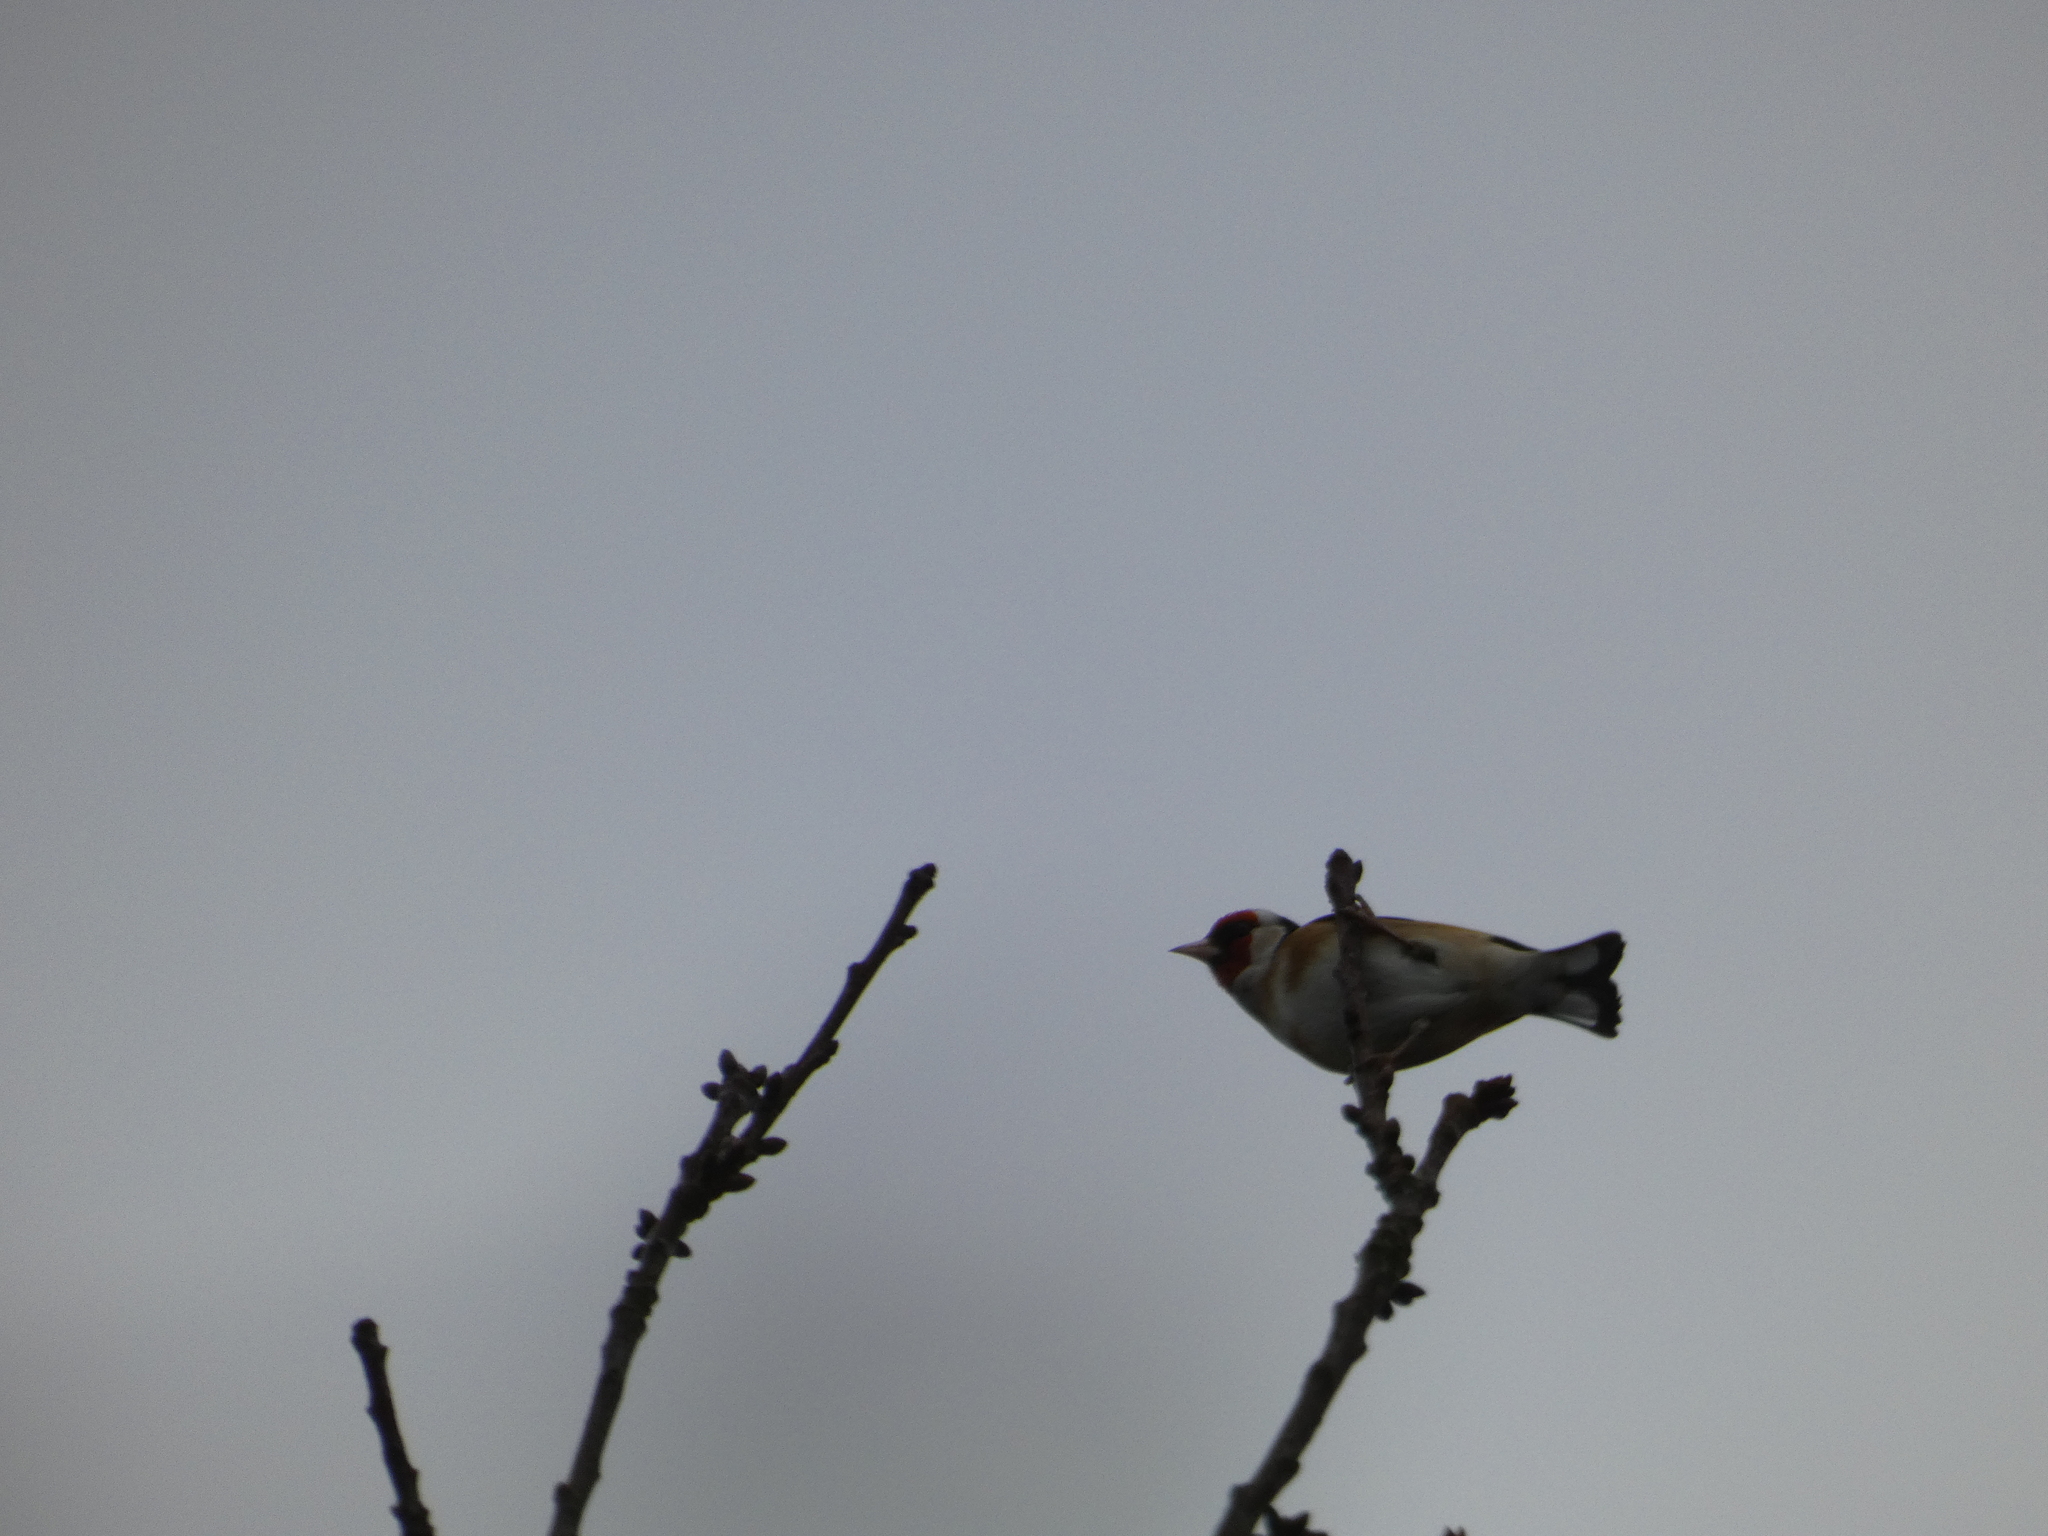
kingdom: Animalia
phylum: Chordata
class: Aves
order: Passeriformes
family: Fringillidae
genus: Carduelis
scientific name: Carduelis carduelis
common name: European goldfinch
